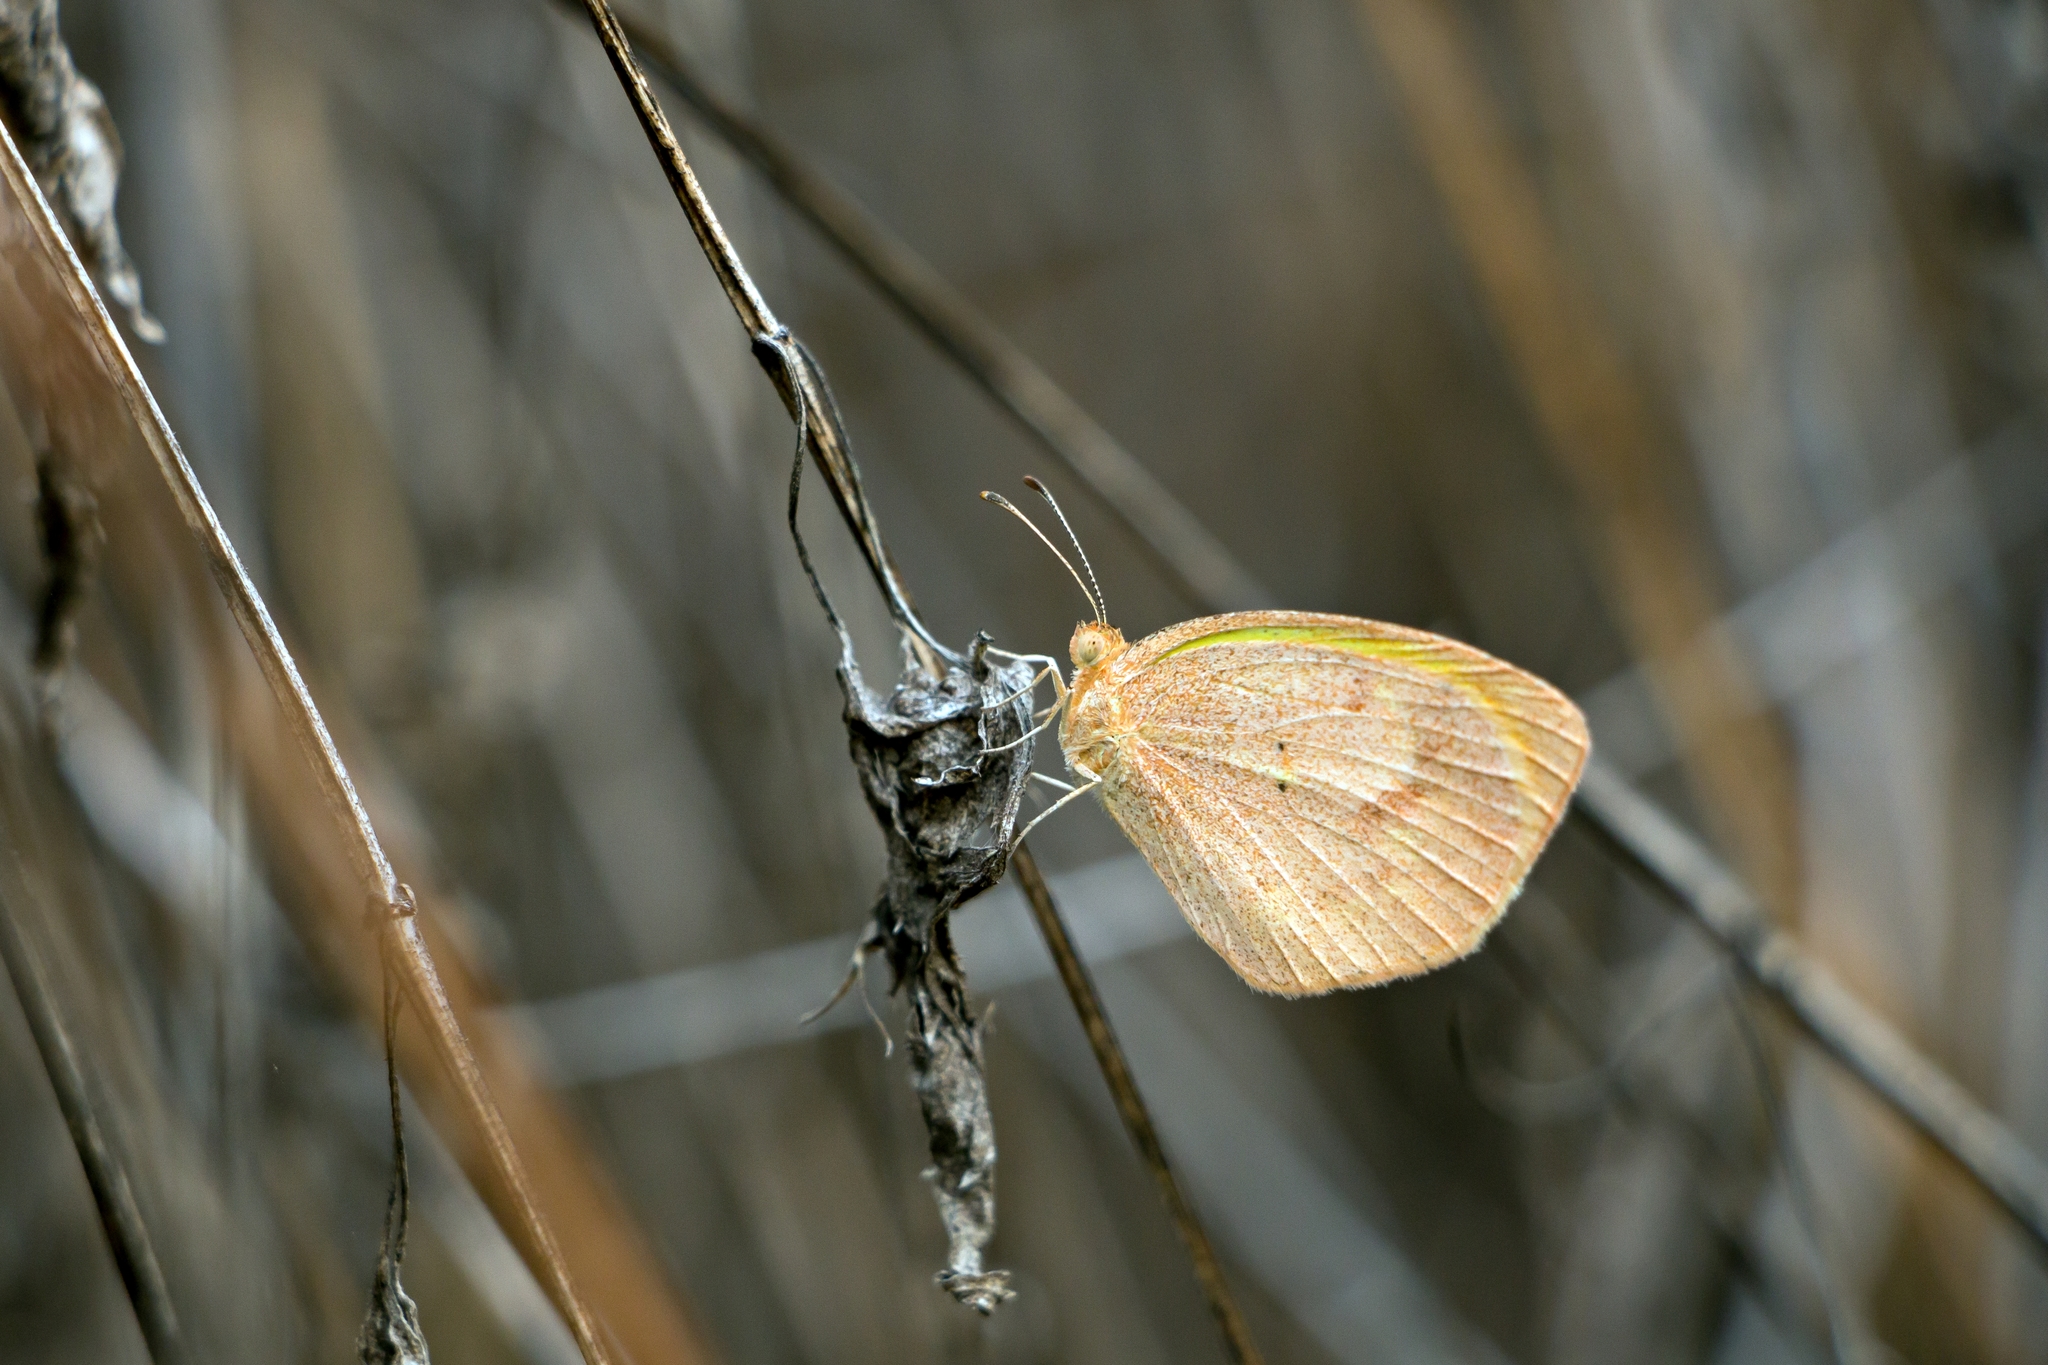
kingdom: Animalia
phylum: Arthropoda
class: Insecta
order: Lepidoptera
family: Pieridae
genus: Eurema
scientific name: Eurema daira
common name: Barred sulphur
